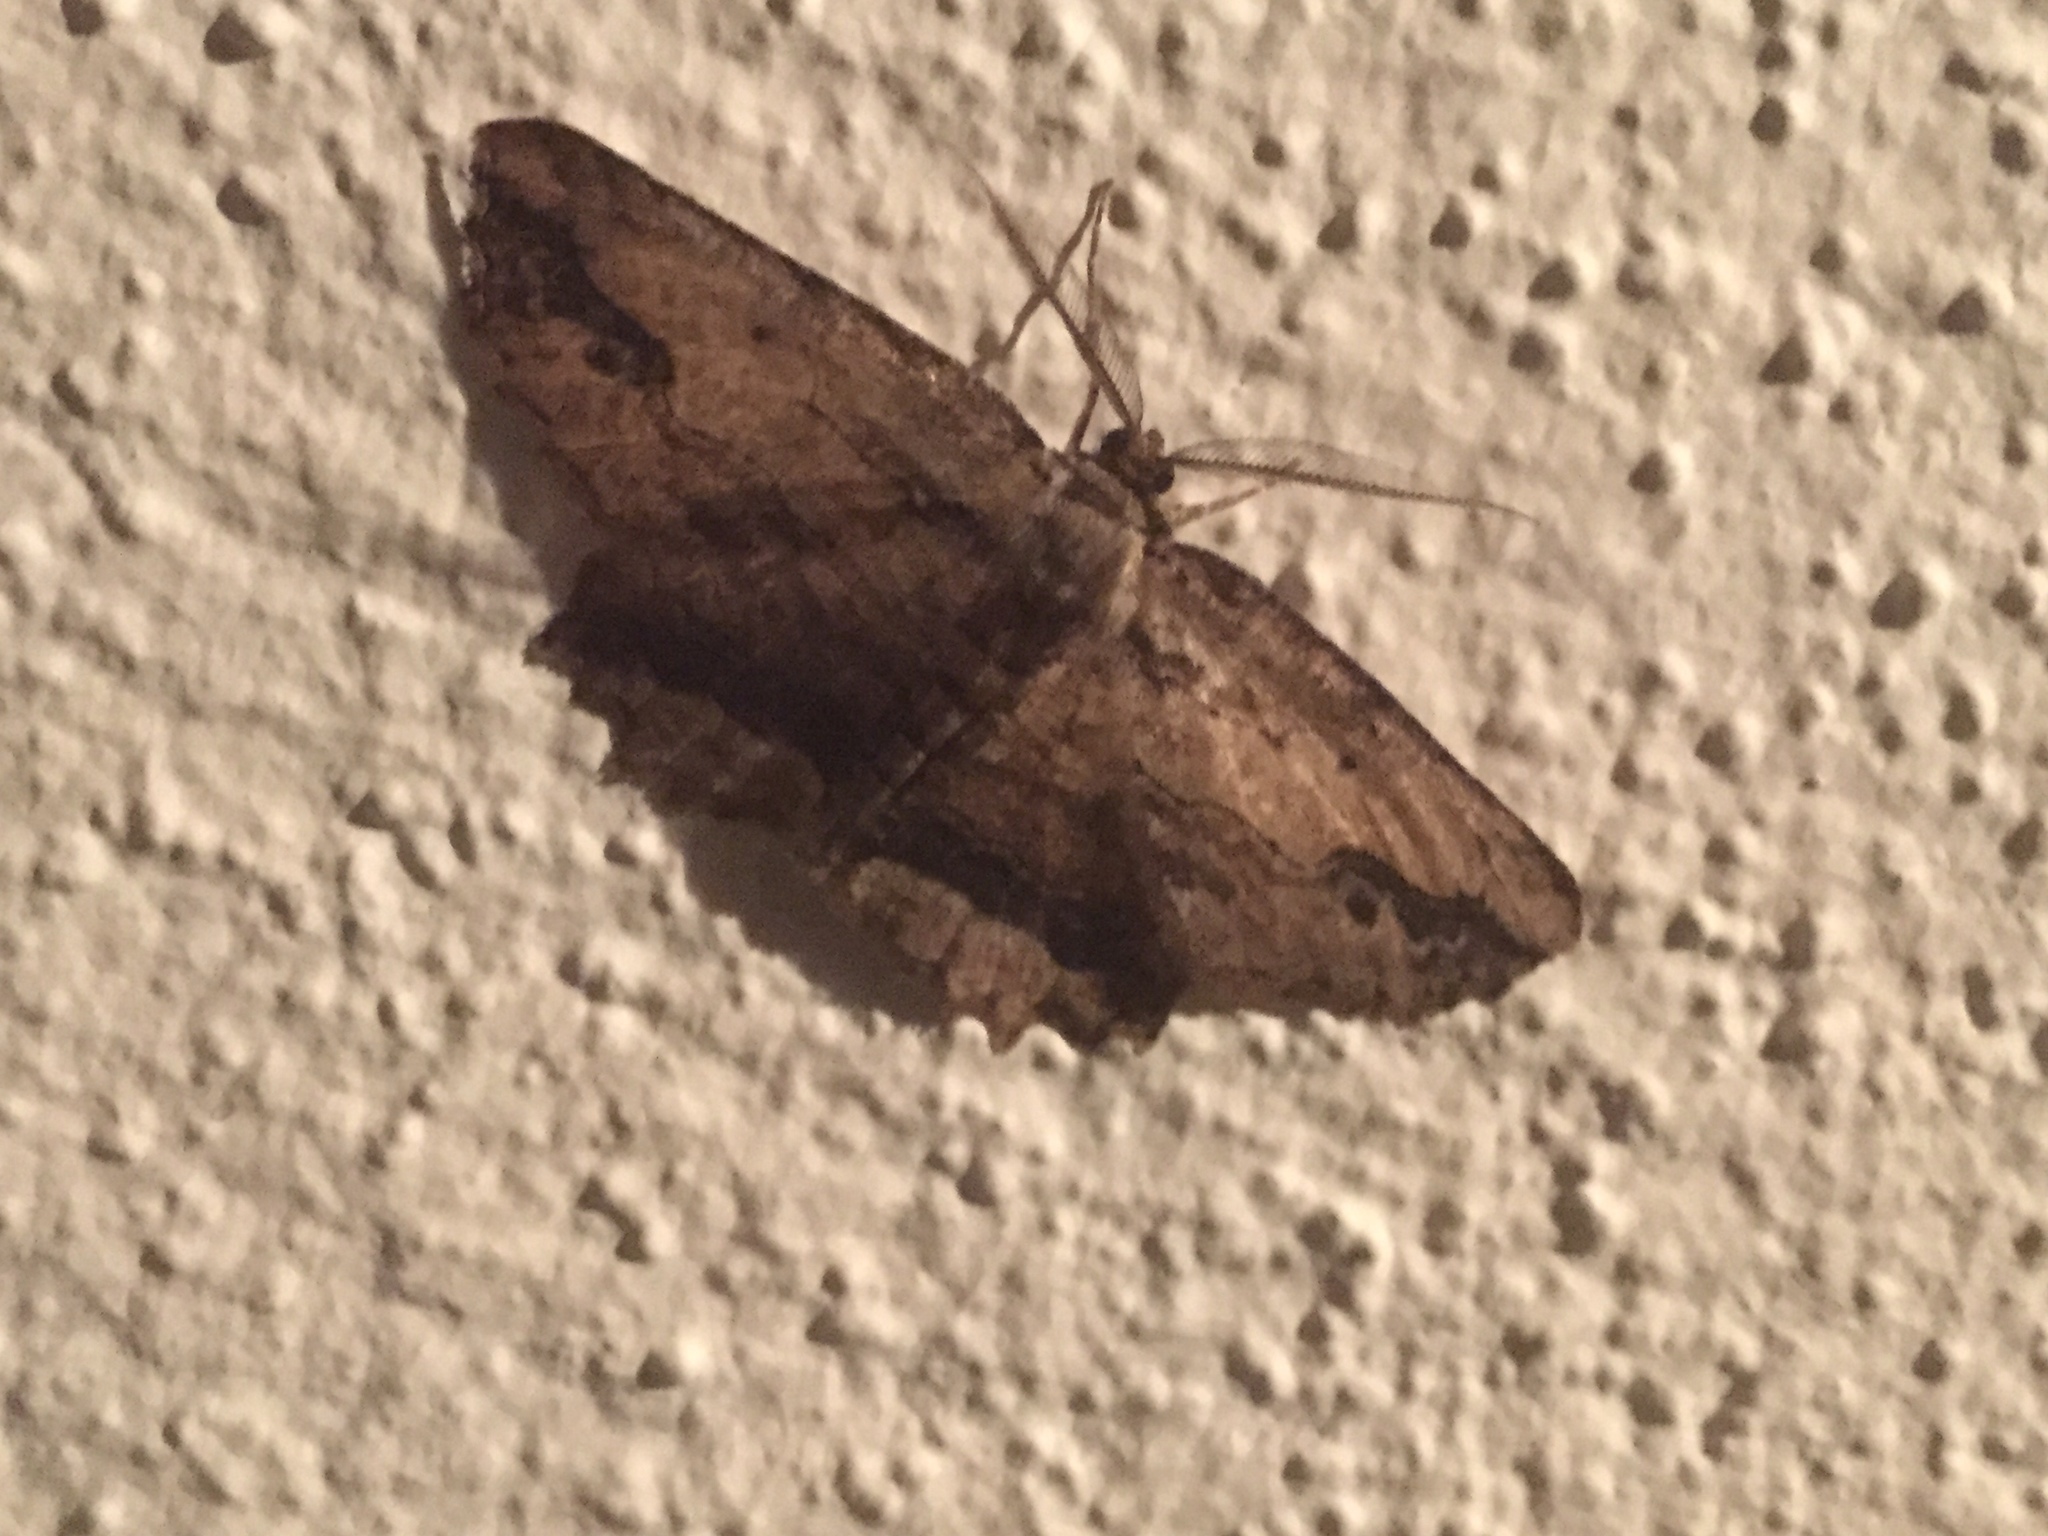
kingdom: Animalia
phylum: Arthropoda
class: Insecta
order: Lepidoptera
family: Geometridae
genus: Menophra
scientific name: Menophra abruptaria
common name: Waved umber
